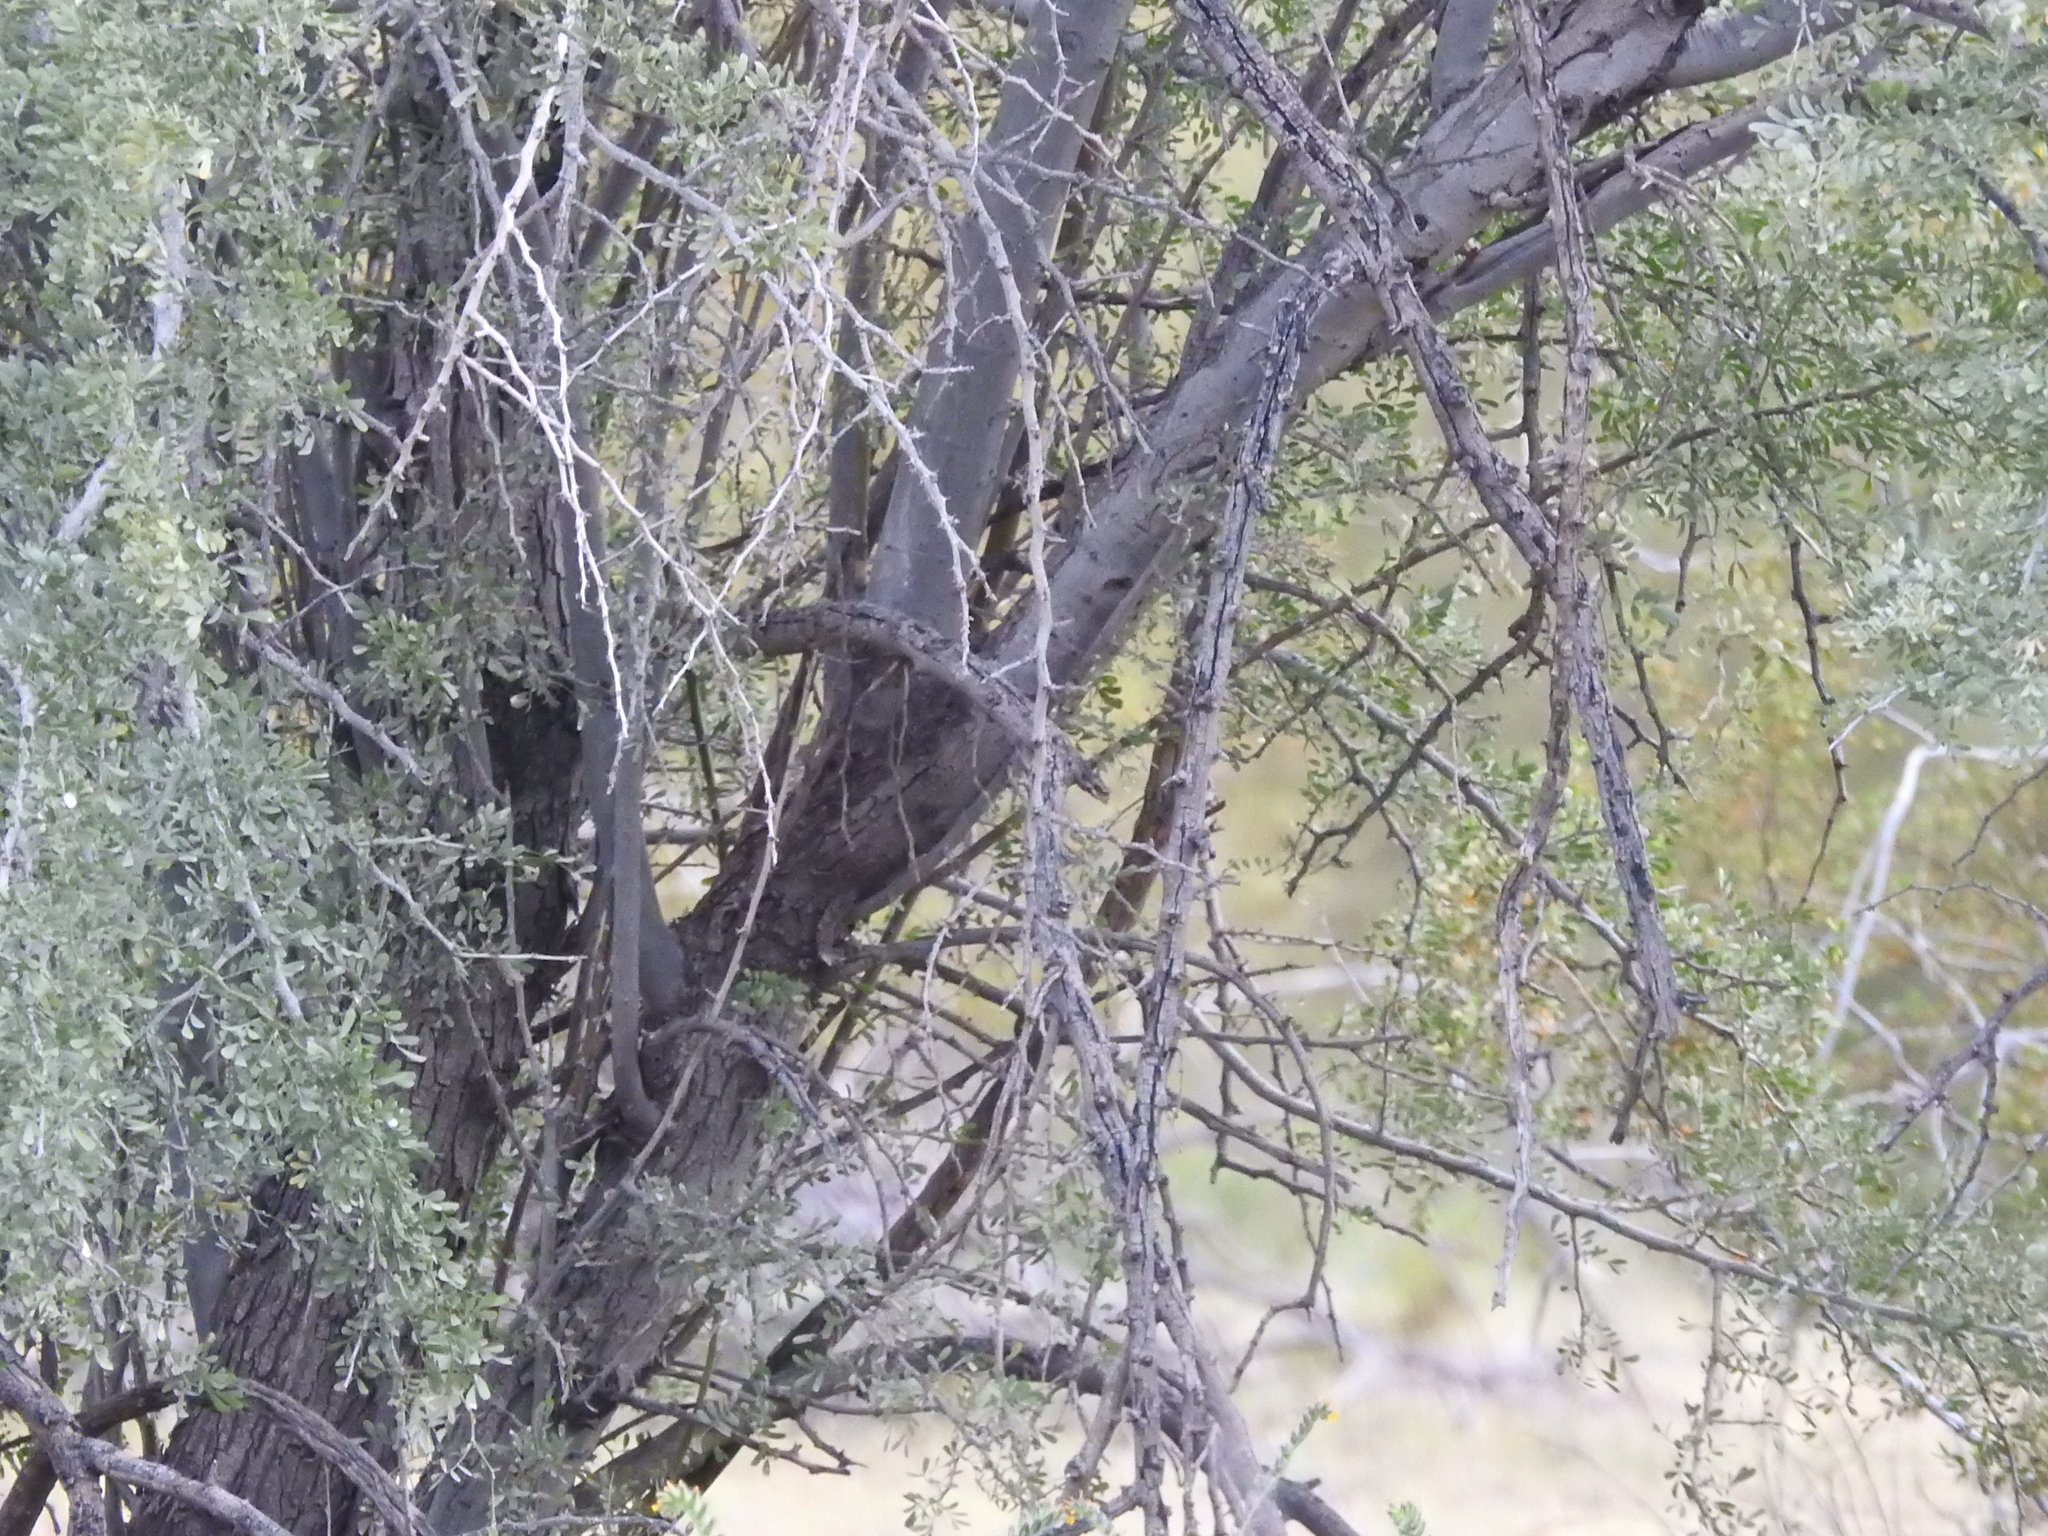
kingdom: Plantae
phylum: Tracheophyta
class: Magnoliopsida
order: Fabales
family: Fabaceae
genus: Olneya
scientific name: Olneya tesota
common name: Desert ironwood
